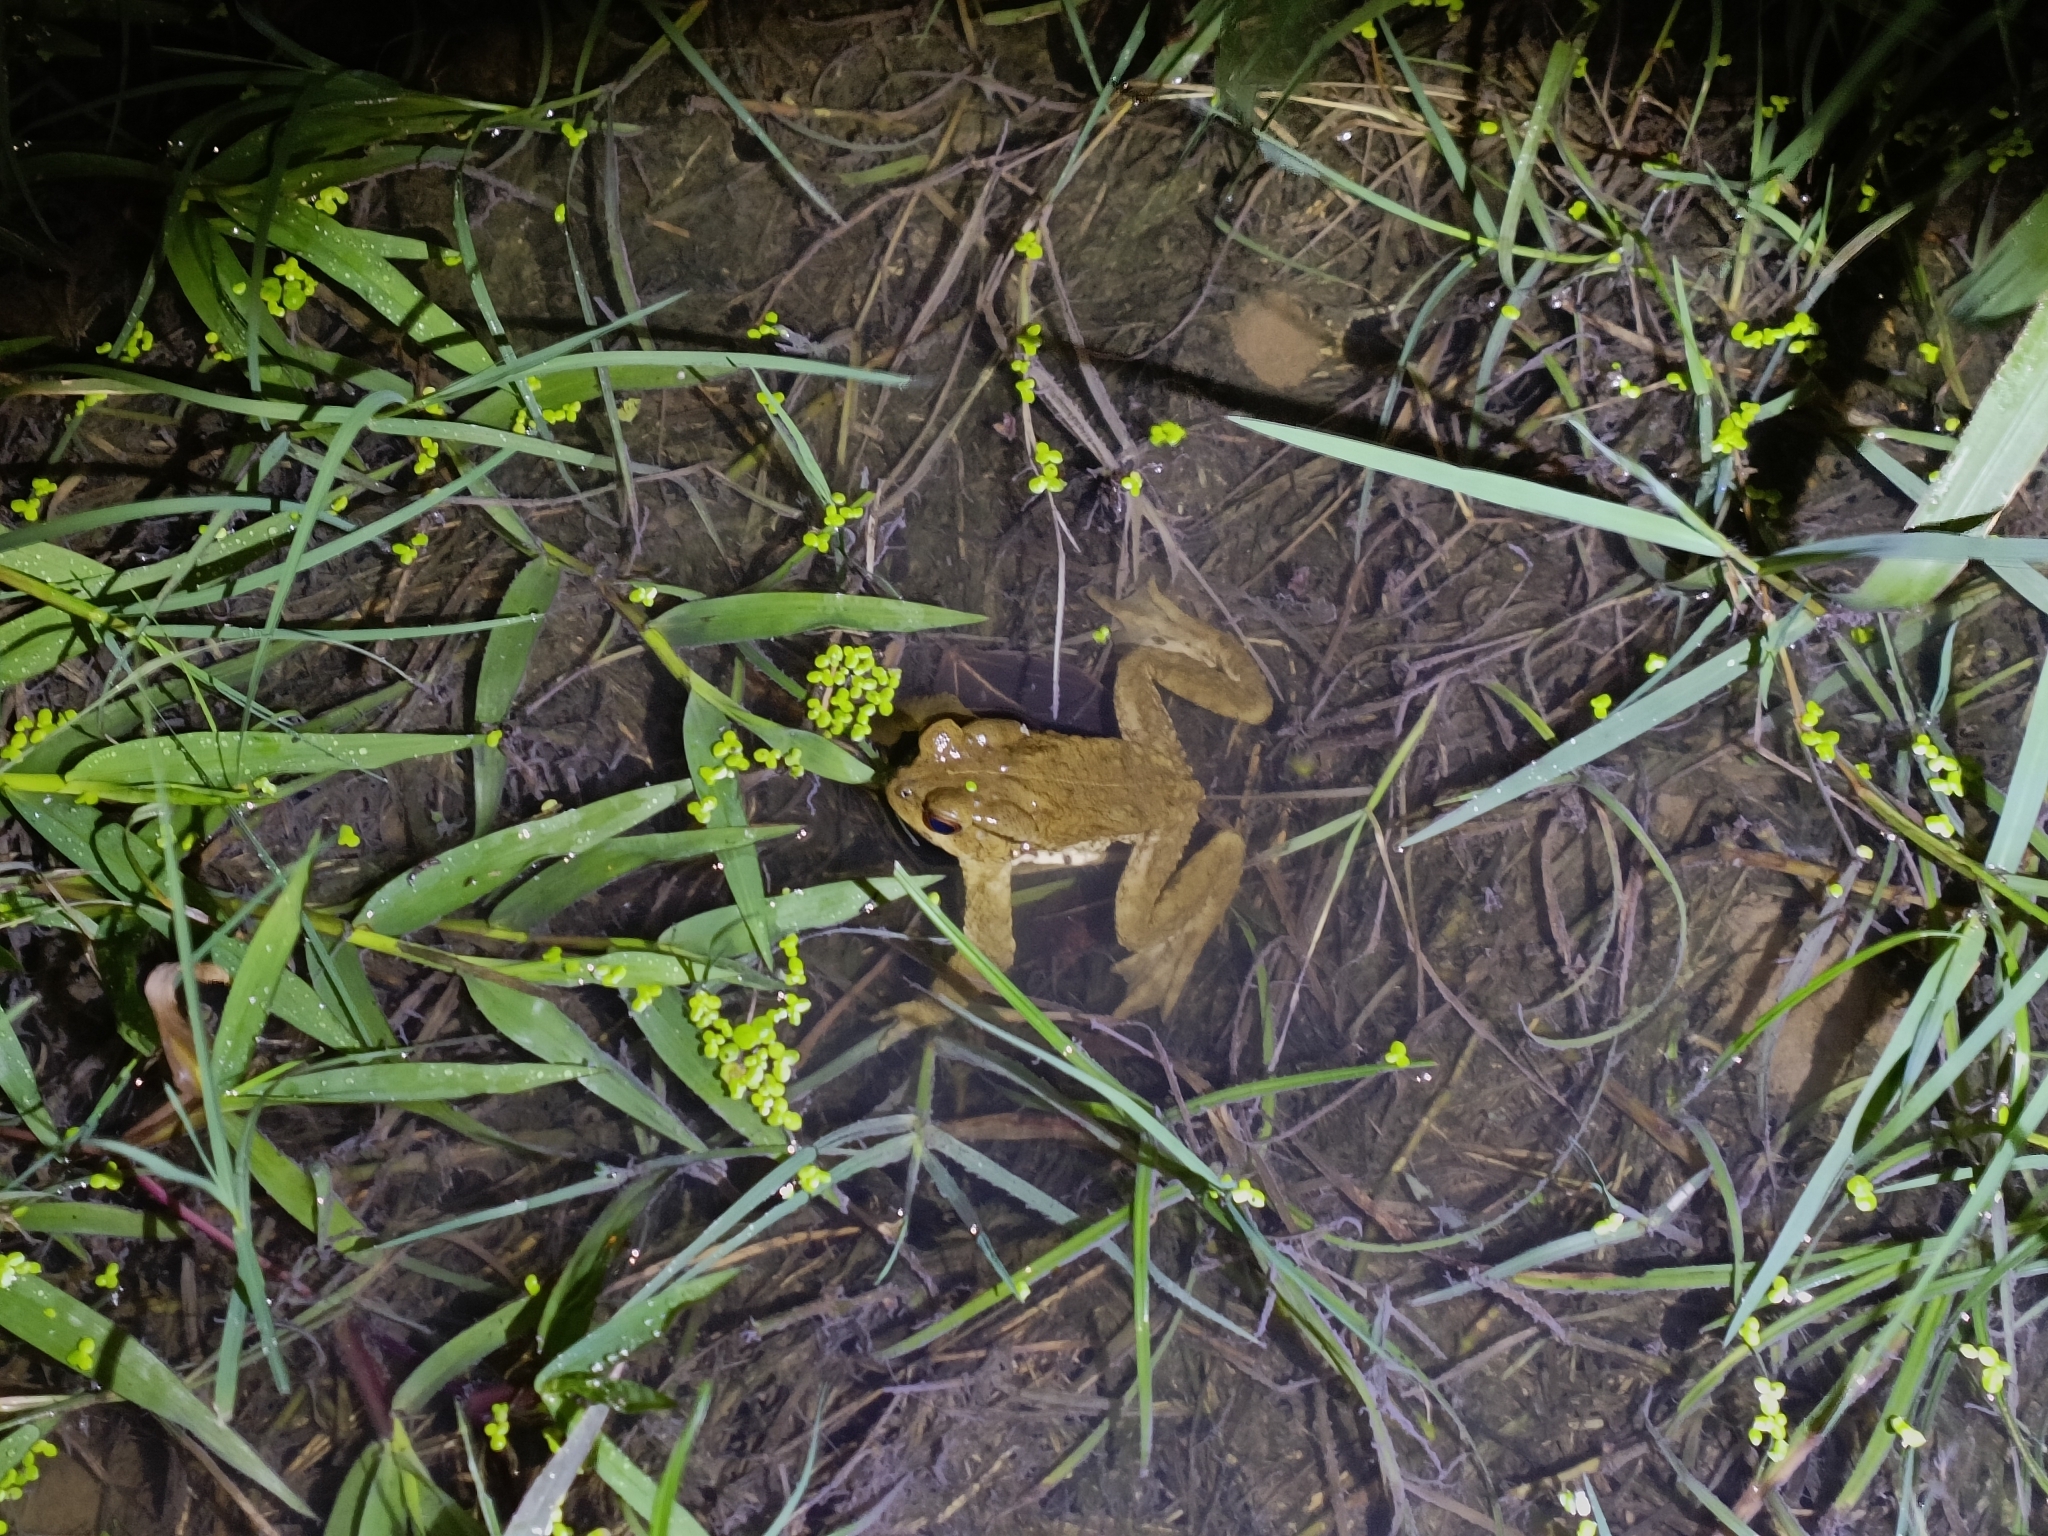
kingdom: Animalia
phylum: Chordata
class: Amphibia
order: Anura
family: Bufonidae
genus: Bufo
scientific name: Bufo bankorensis
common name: Bankor toad
